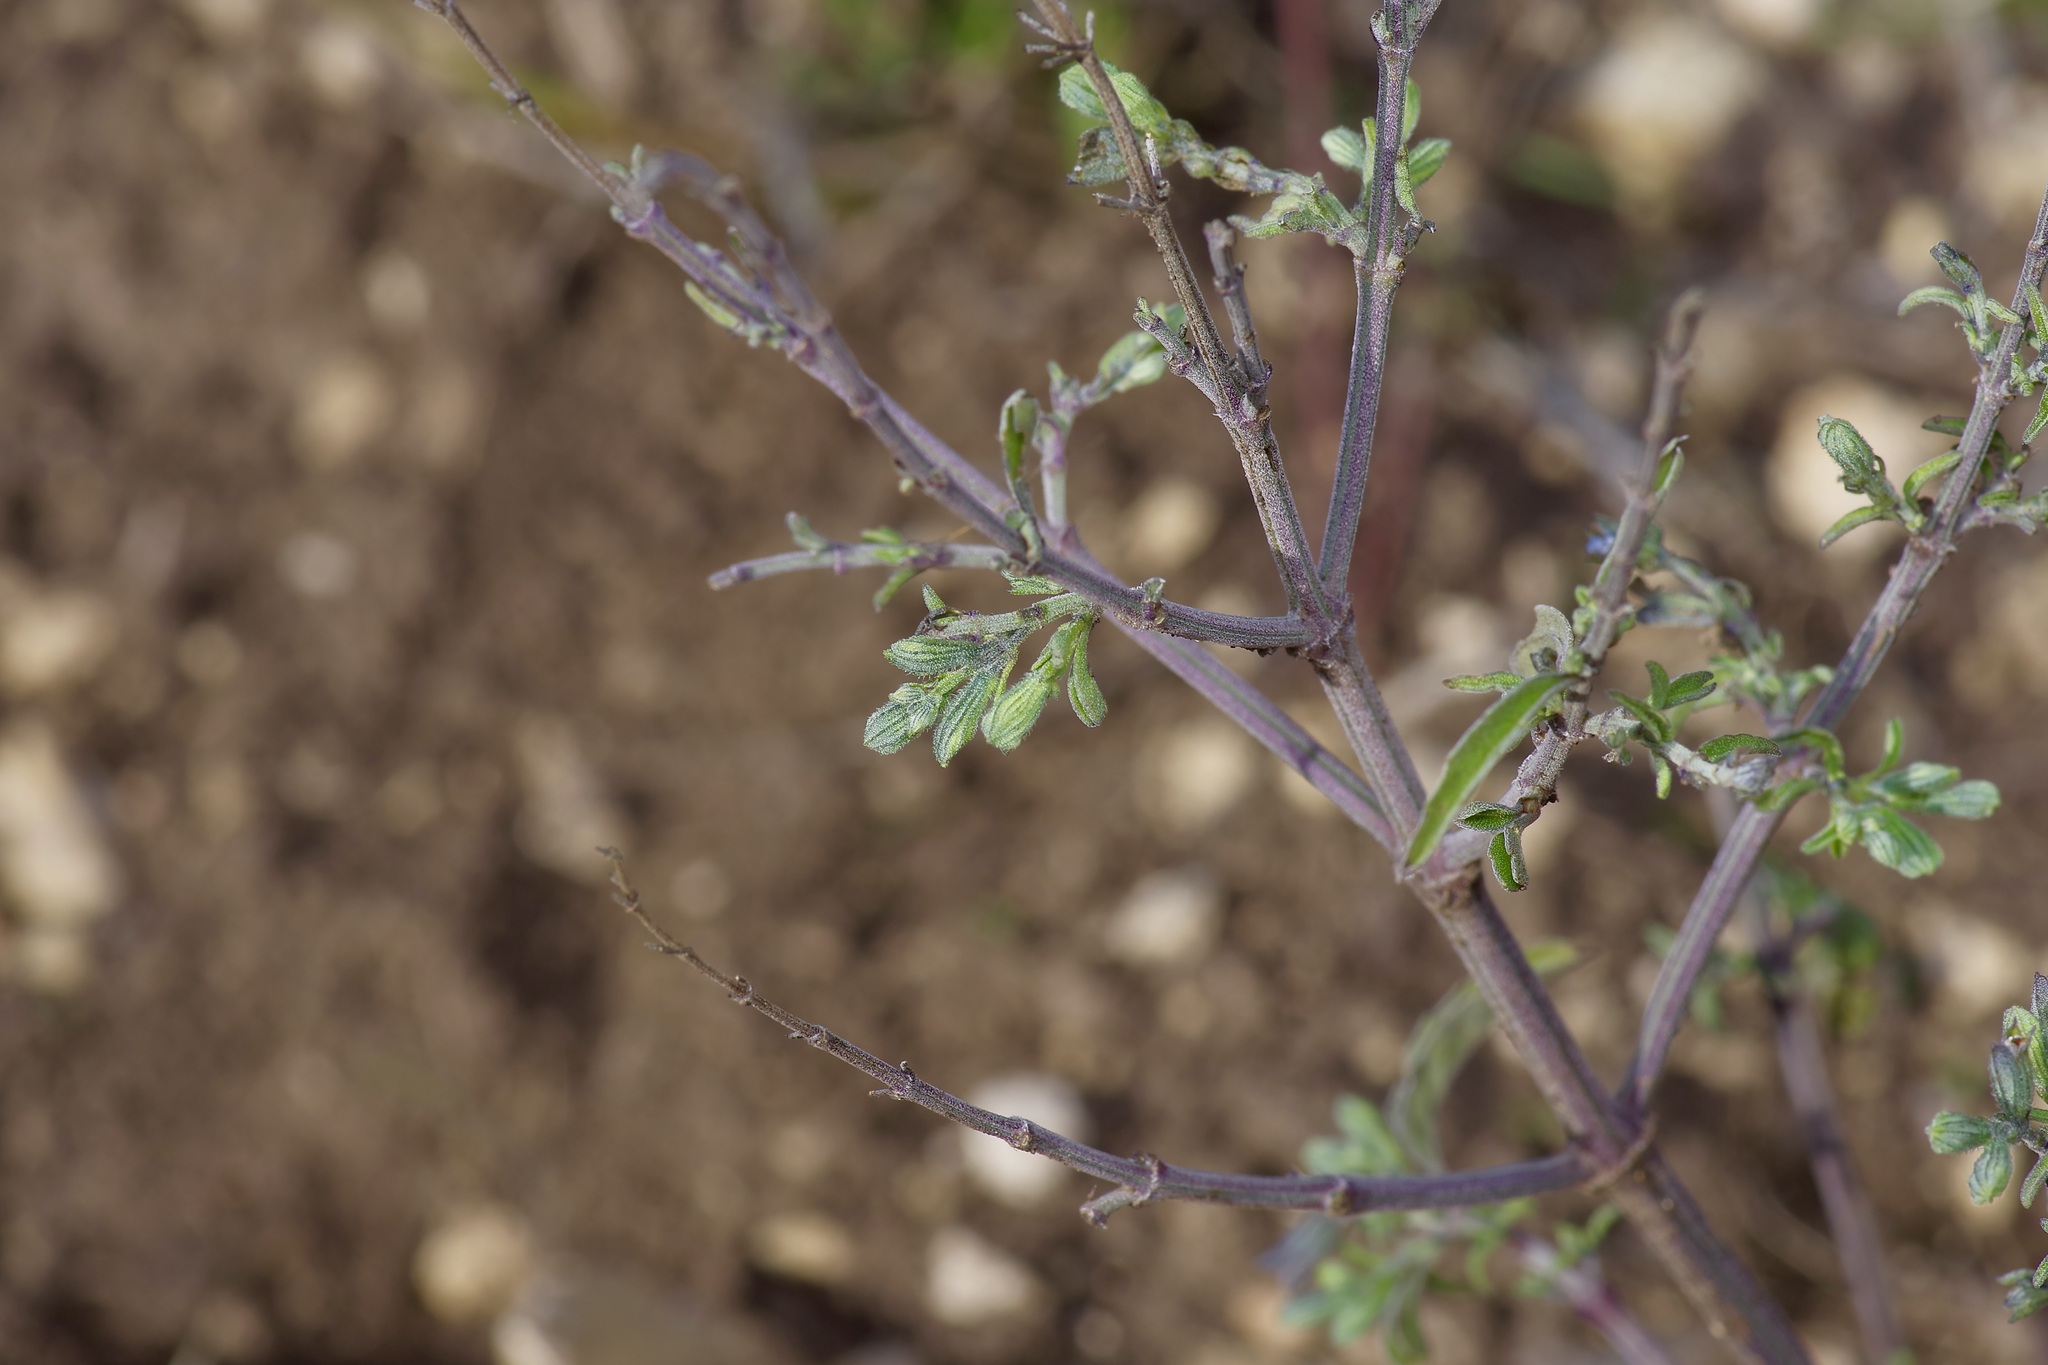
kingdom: Plantae
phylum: Tracheophyta
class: Magnoliopsida
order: Lamiales
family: Lamiaceae
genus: Salvia
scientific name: Salvia reflexa
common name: Mintweed
